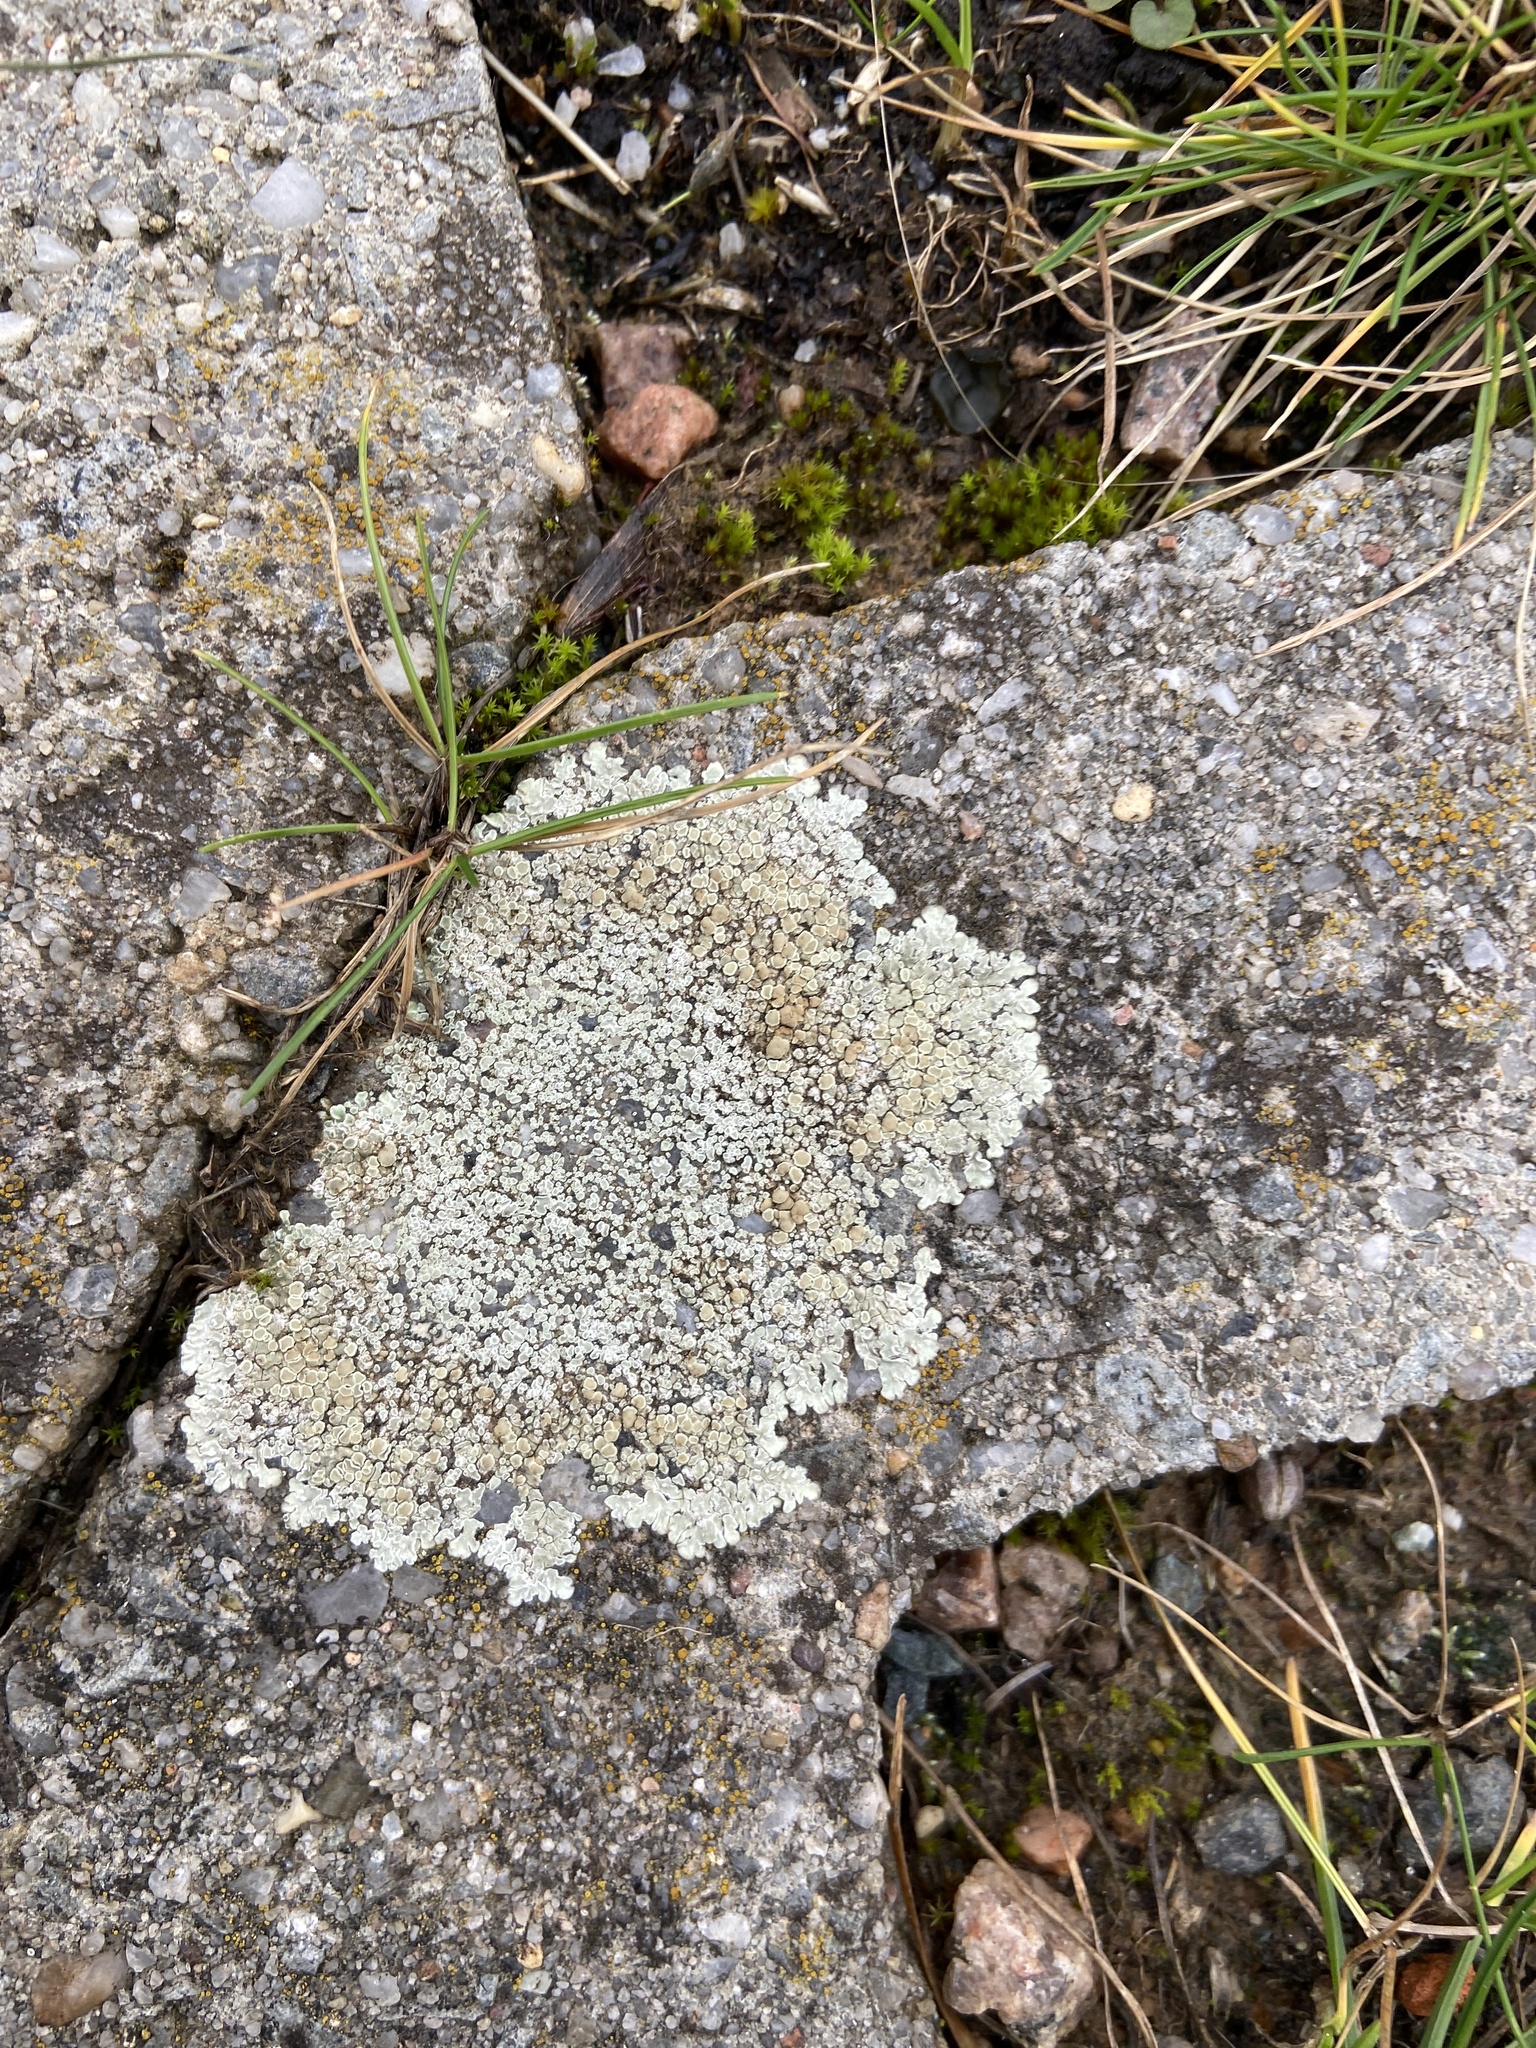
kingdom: Fungi
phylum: Ascomycota
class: Lecanoromycetes
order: Lecanorales
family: Lecanoraceae
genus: Protoparmeliopsis
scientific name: Protoparmeliopsis muralis
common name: Stonewall rim lichen
